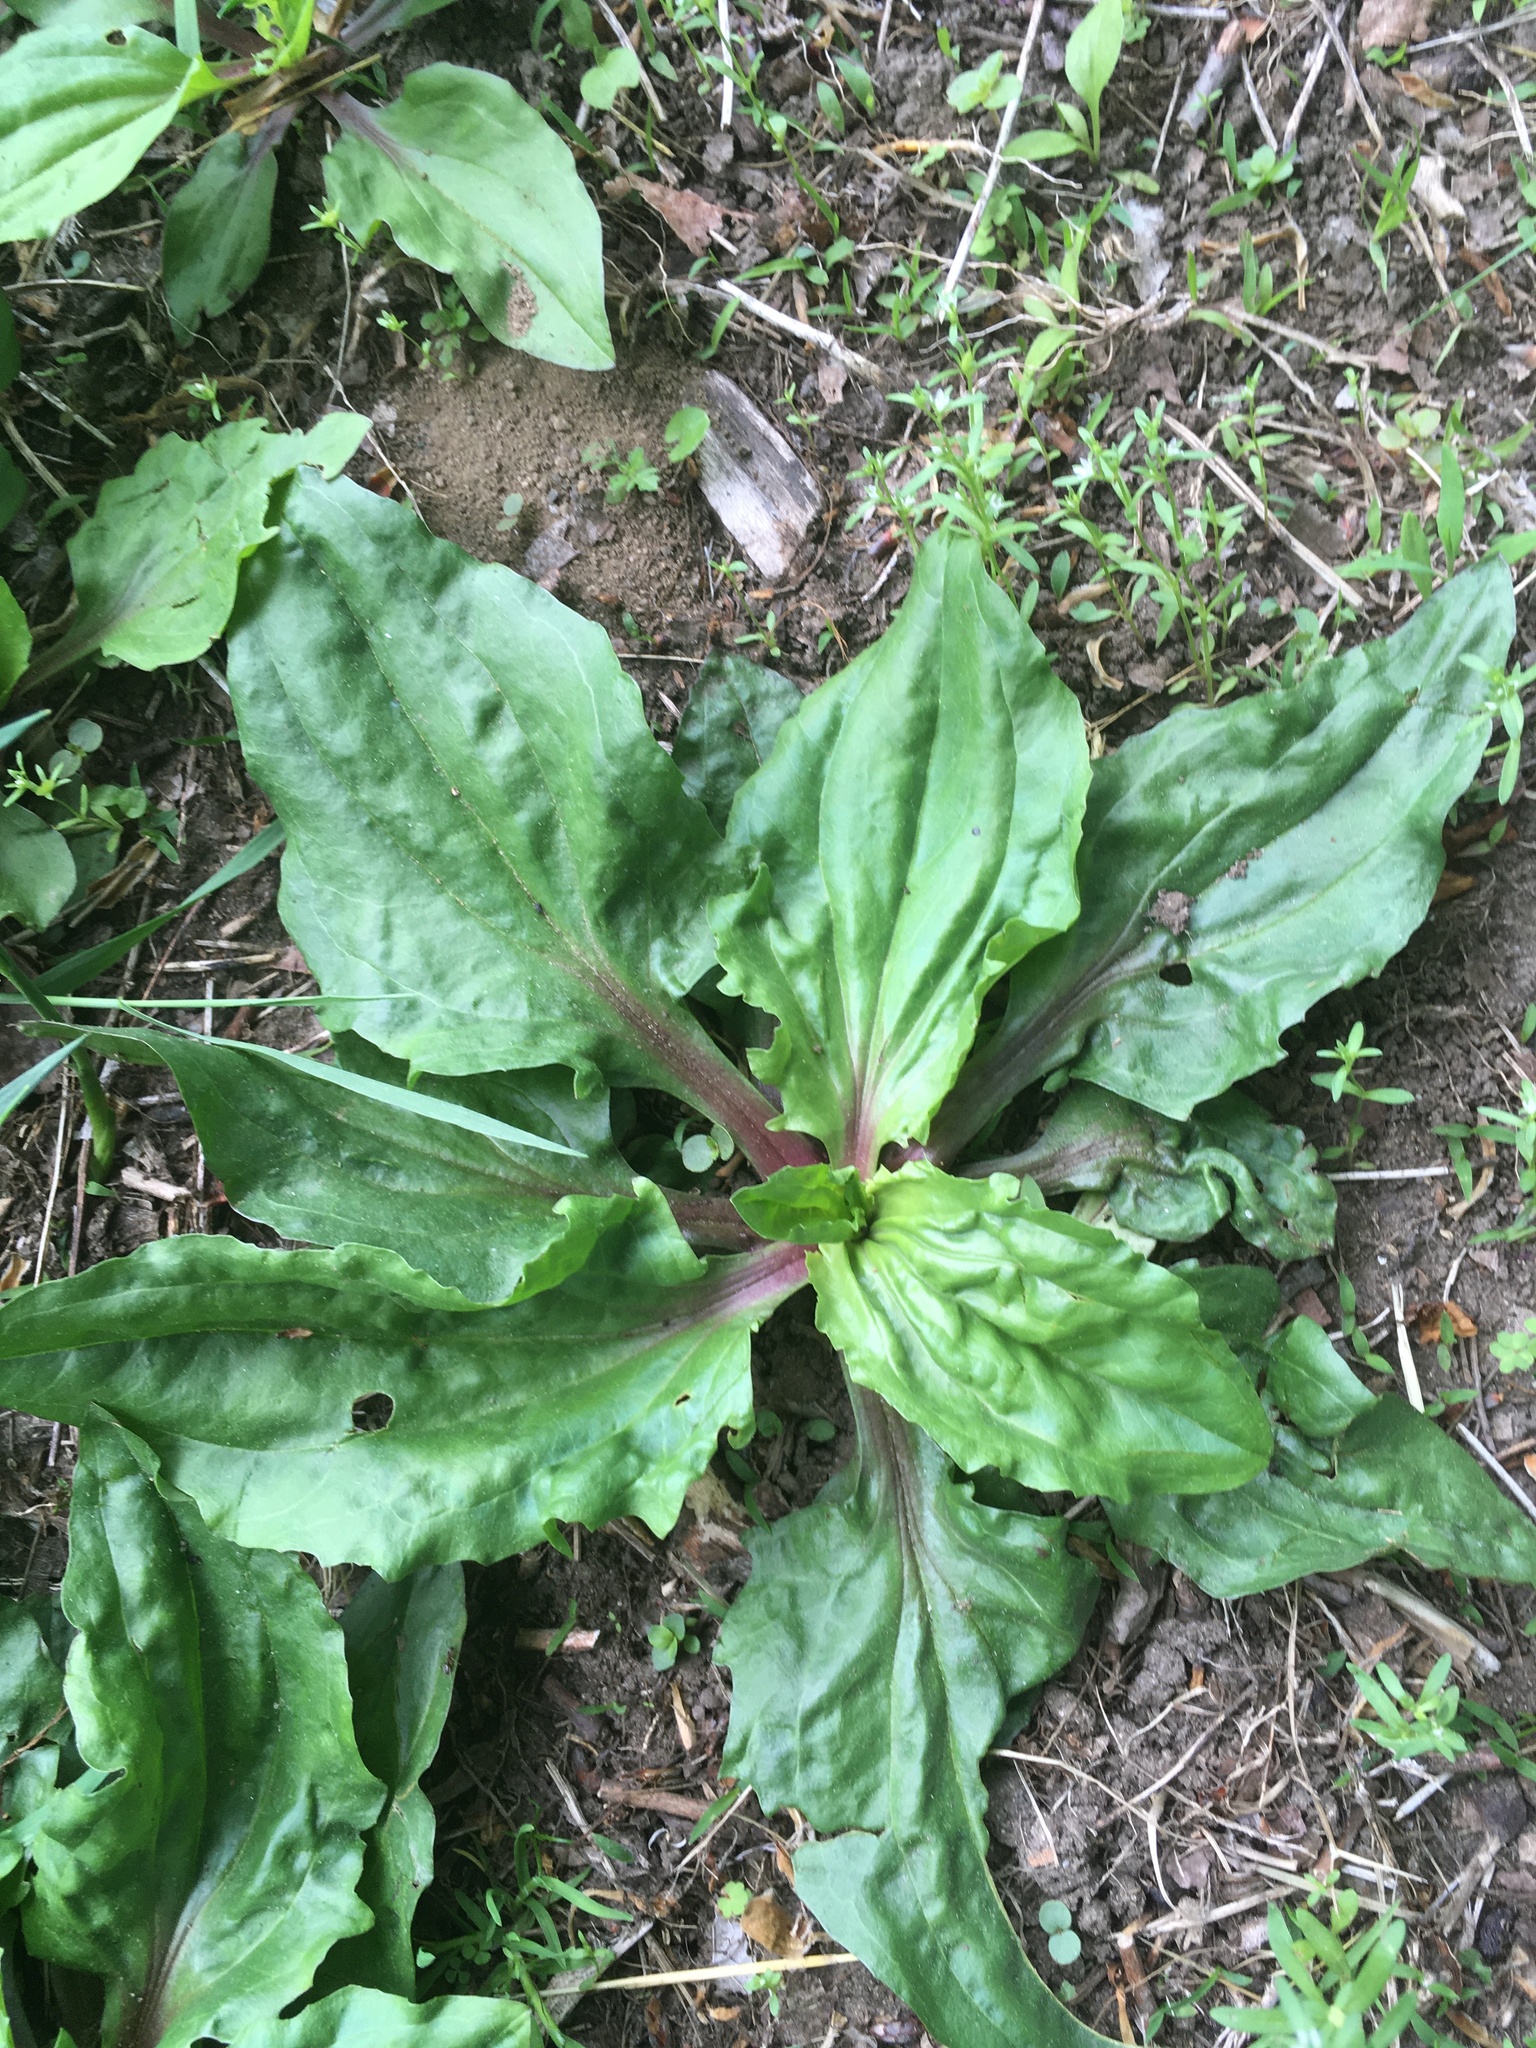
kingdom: Plantae
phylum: Tracheophyta
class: Magnoliopsida
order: Lamiales
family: Plantaginaceae
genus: Plantago
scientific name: Plantago rugelii
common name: American plantain
